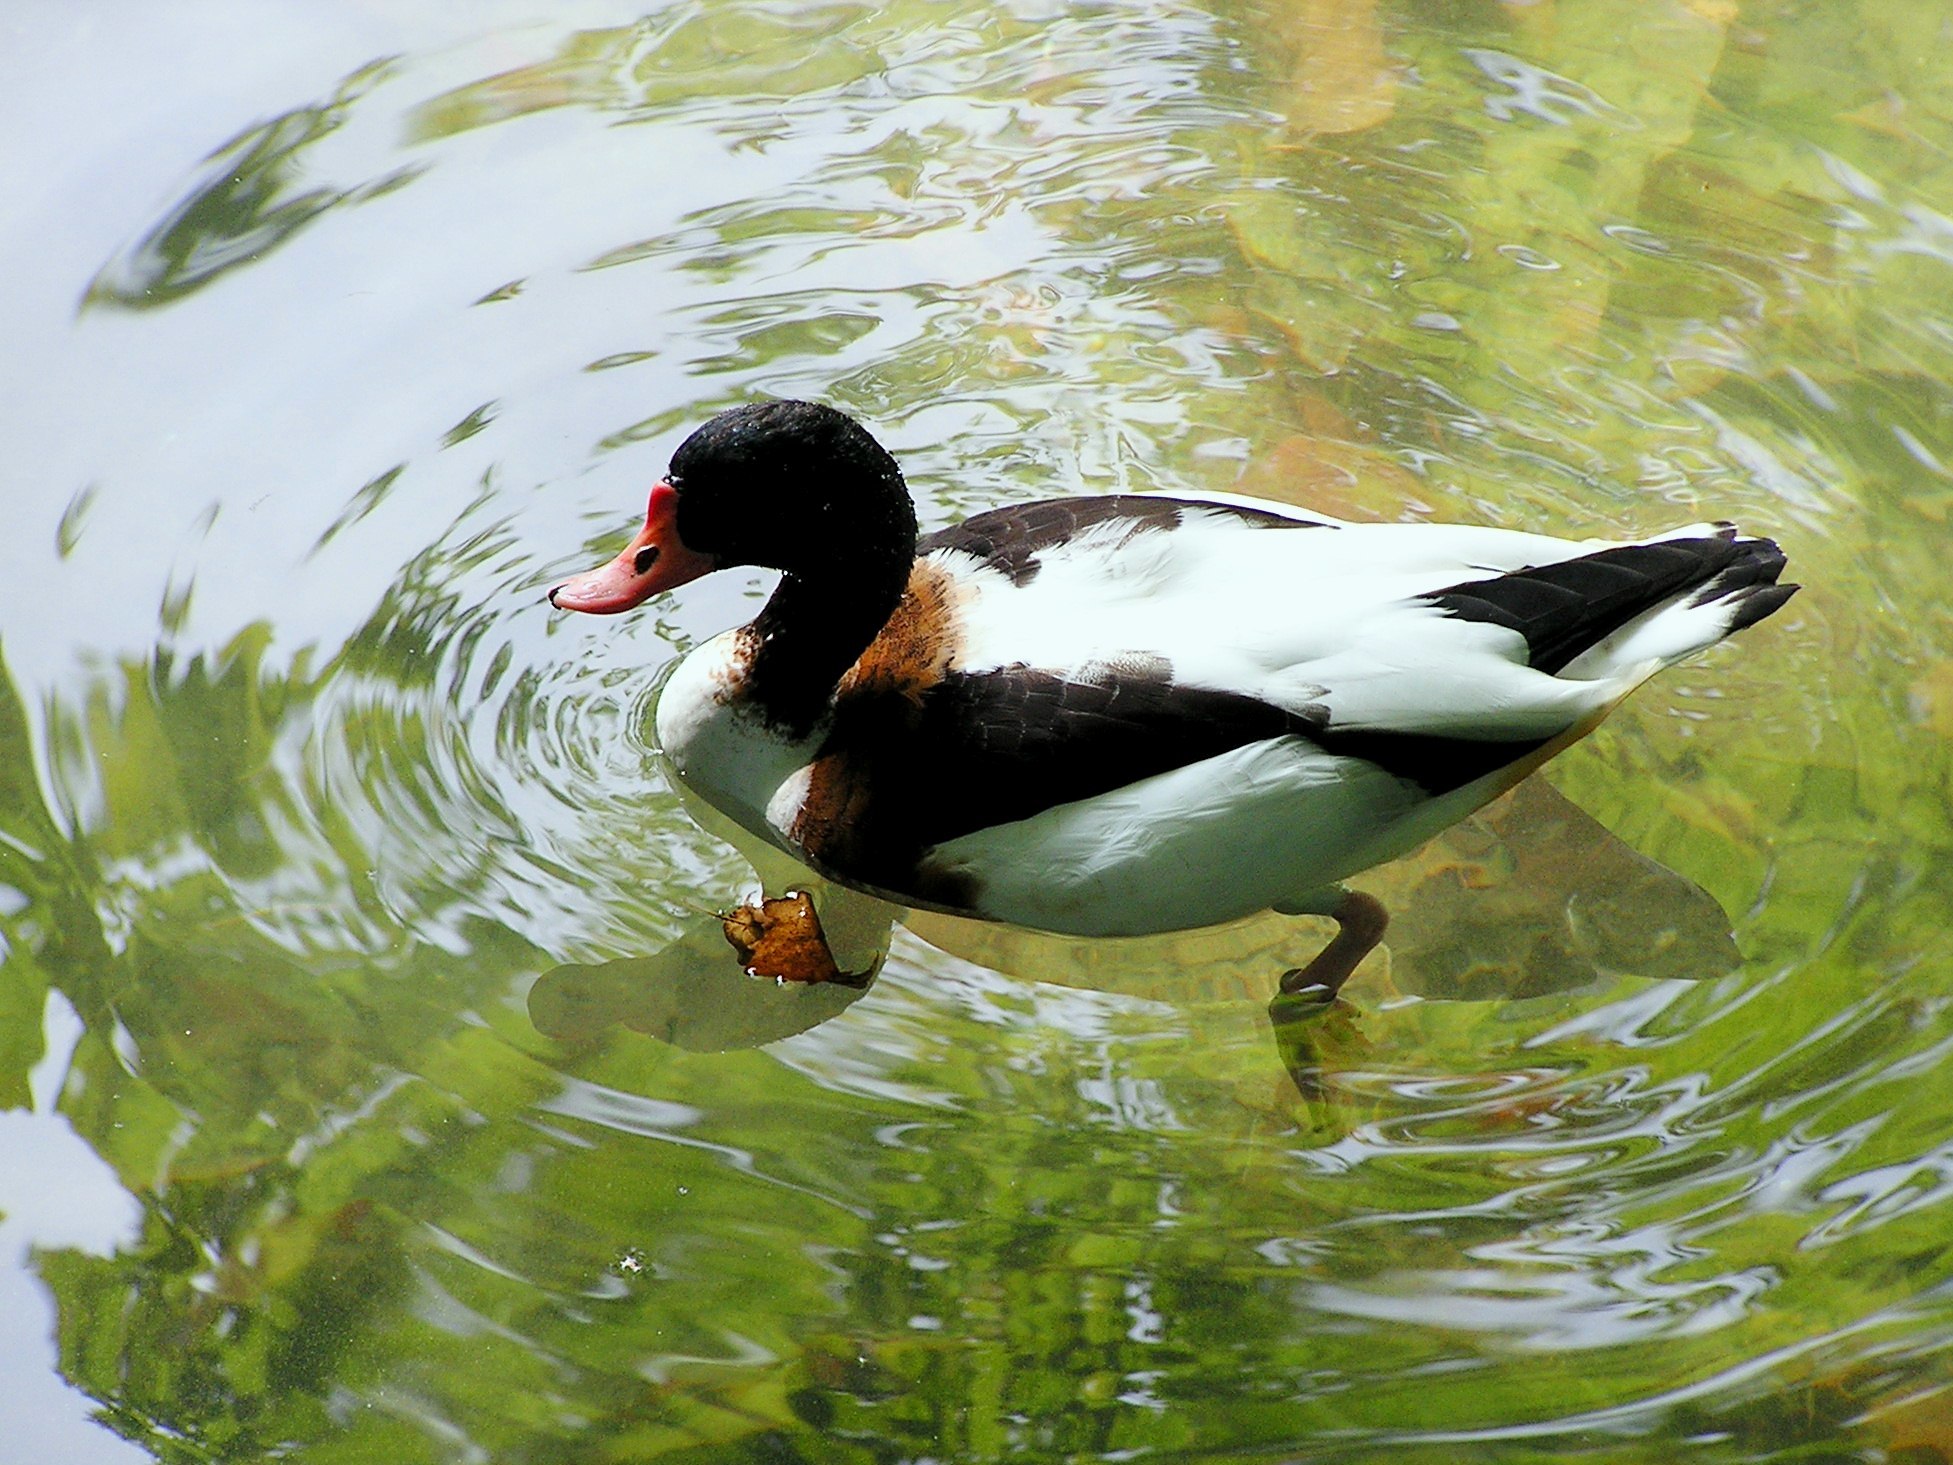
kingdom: Animalia
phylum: Chordata
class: Aves
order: Anseriformes
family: Anatidae
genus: Tadorna
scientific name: Tadorna tadorna
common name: Common shelduck
